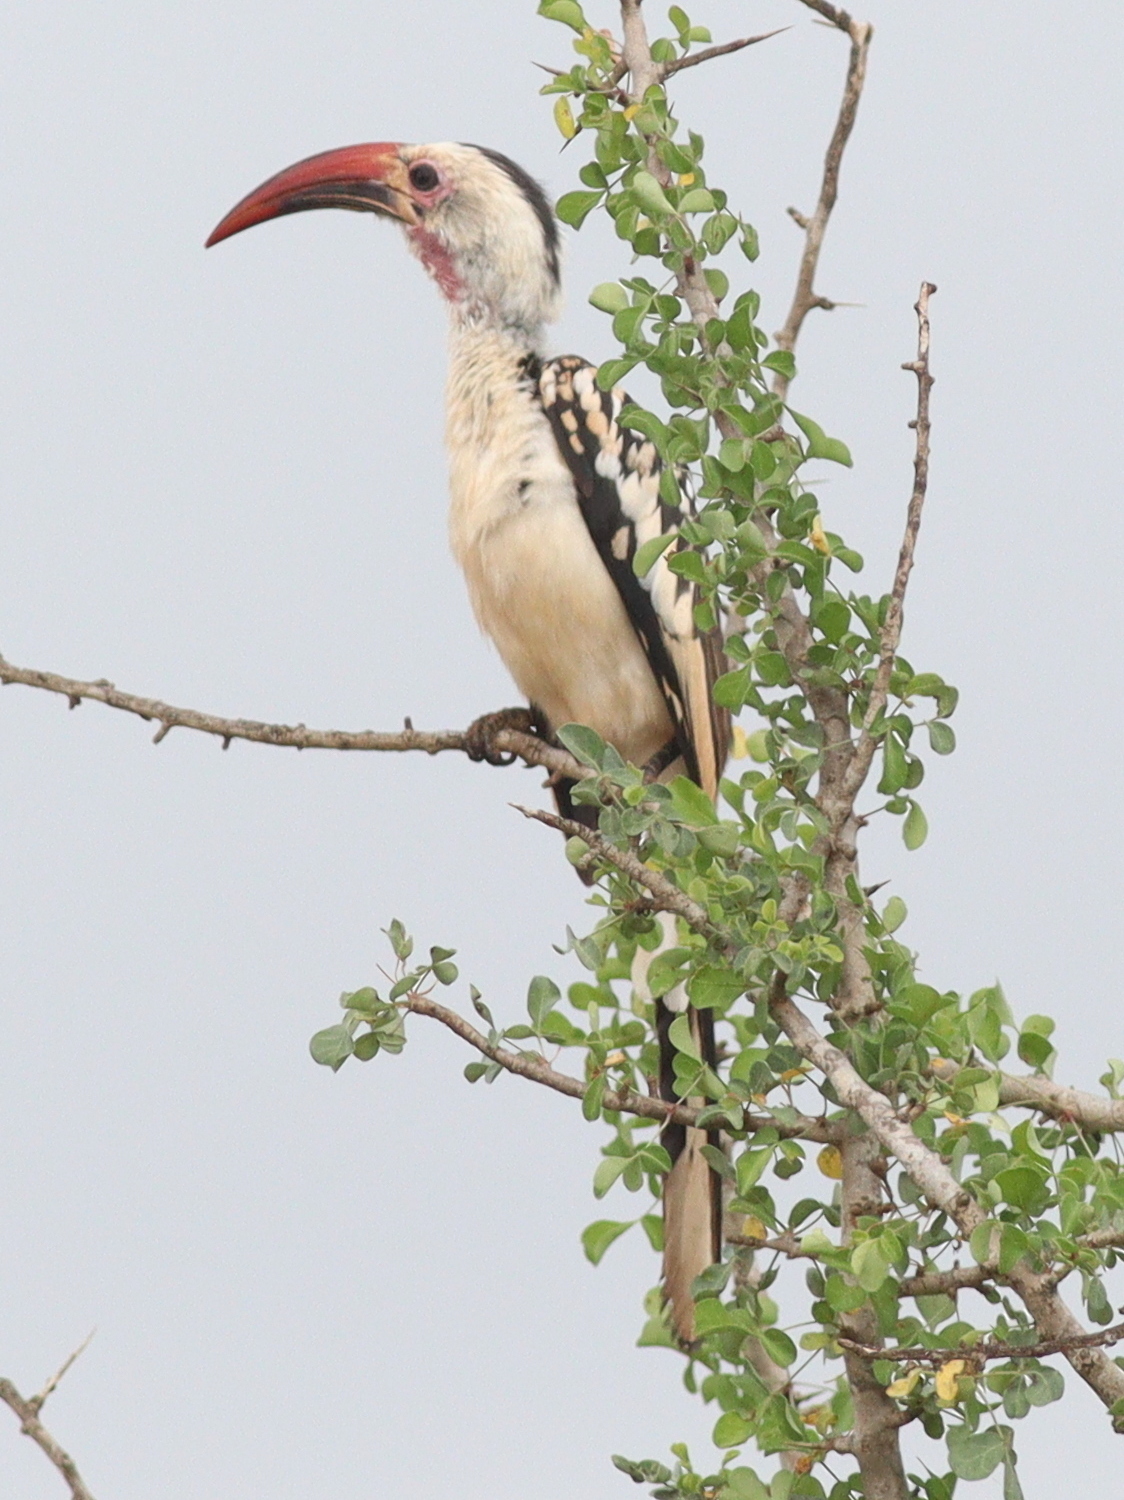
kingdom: Animalia
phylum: Chordata
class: Aves
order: Bucerotiformes
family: Bucerotidae
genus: Tockus
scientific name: Tockus erythrorhynchus
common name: Northern red-billed hornbill
